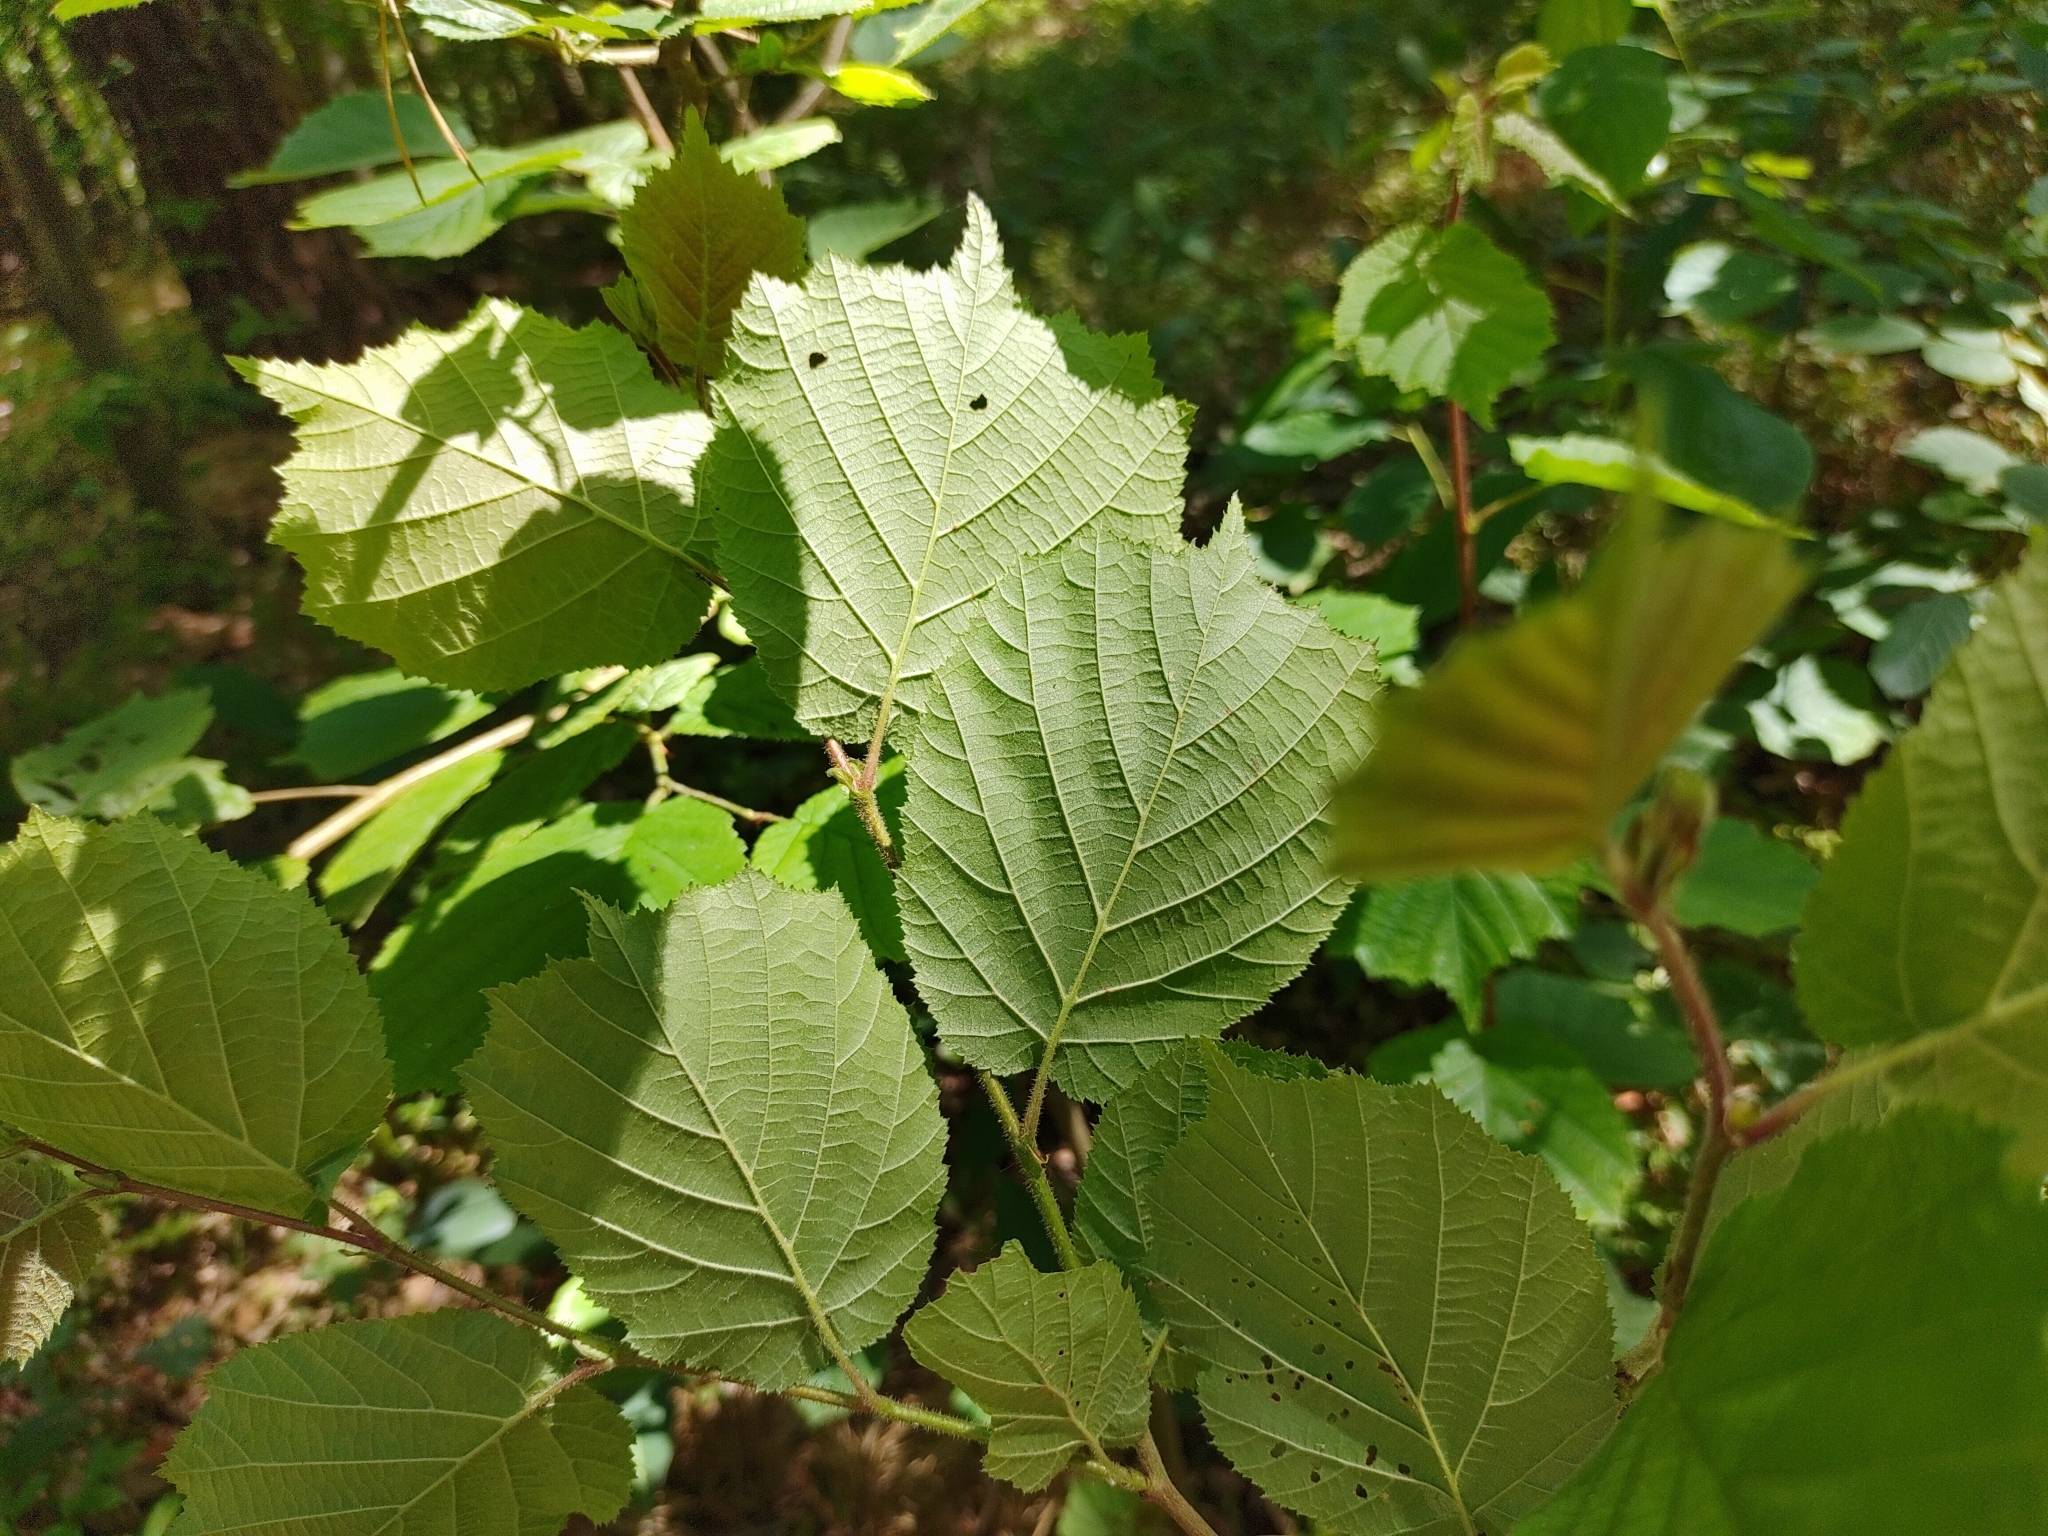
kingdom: Plantae
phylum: Tracheophyta
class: Magnoliopsida
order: Fagales
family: Betulaceae
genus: Corylus
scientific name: Corylus avellana
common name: European hazel
